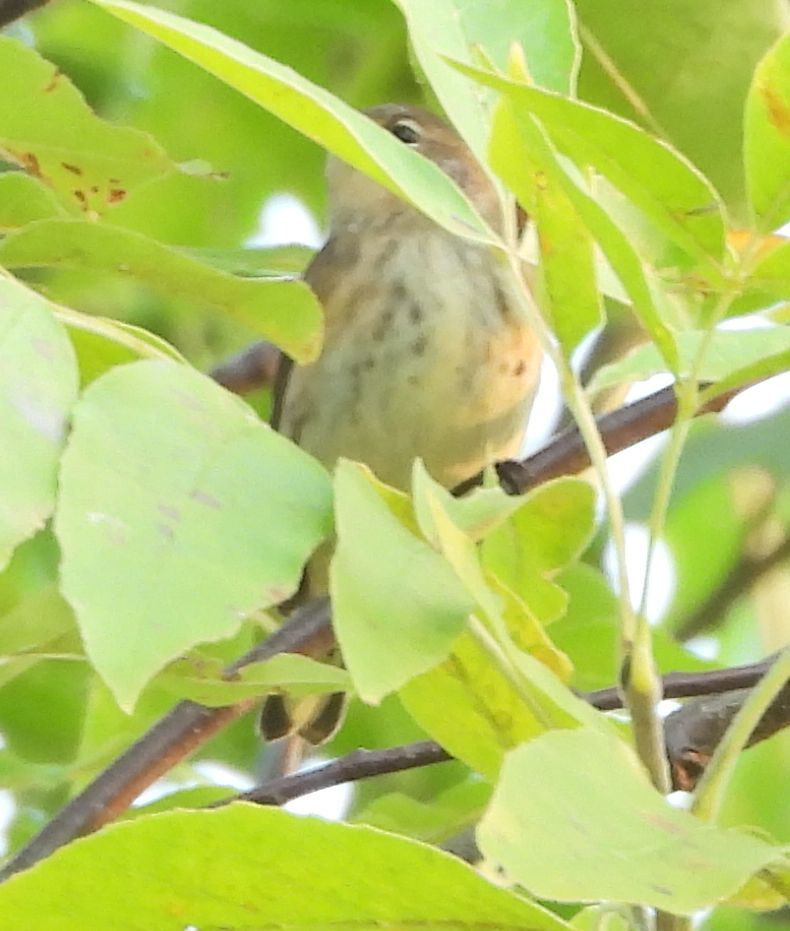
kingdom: Animalia
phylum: Chordata
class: Aves
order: Passeriformes
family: Parulidae
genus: Setophaga
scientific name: Setophaga coronata
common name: Myrtle warbler
